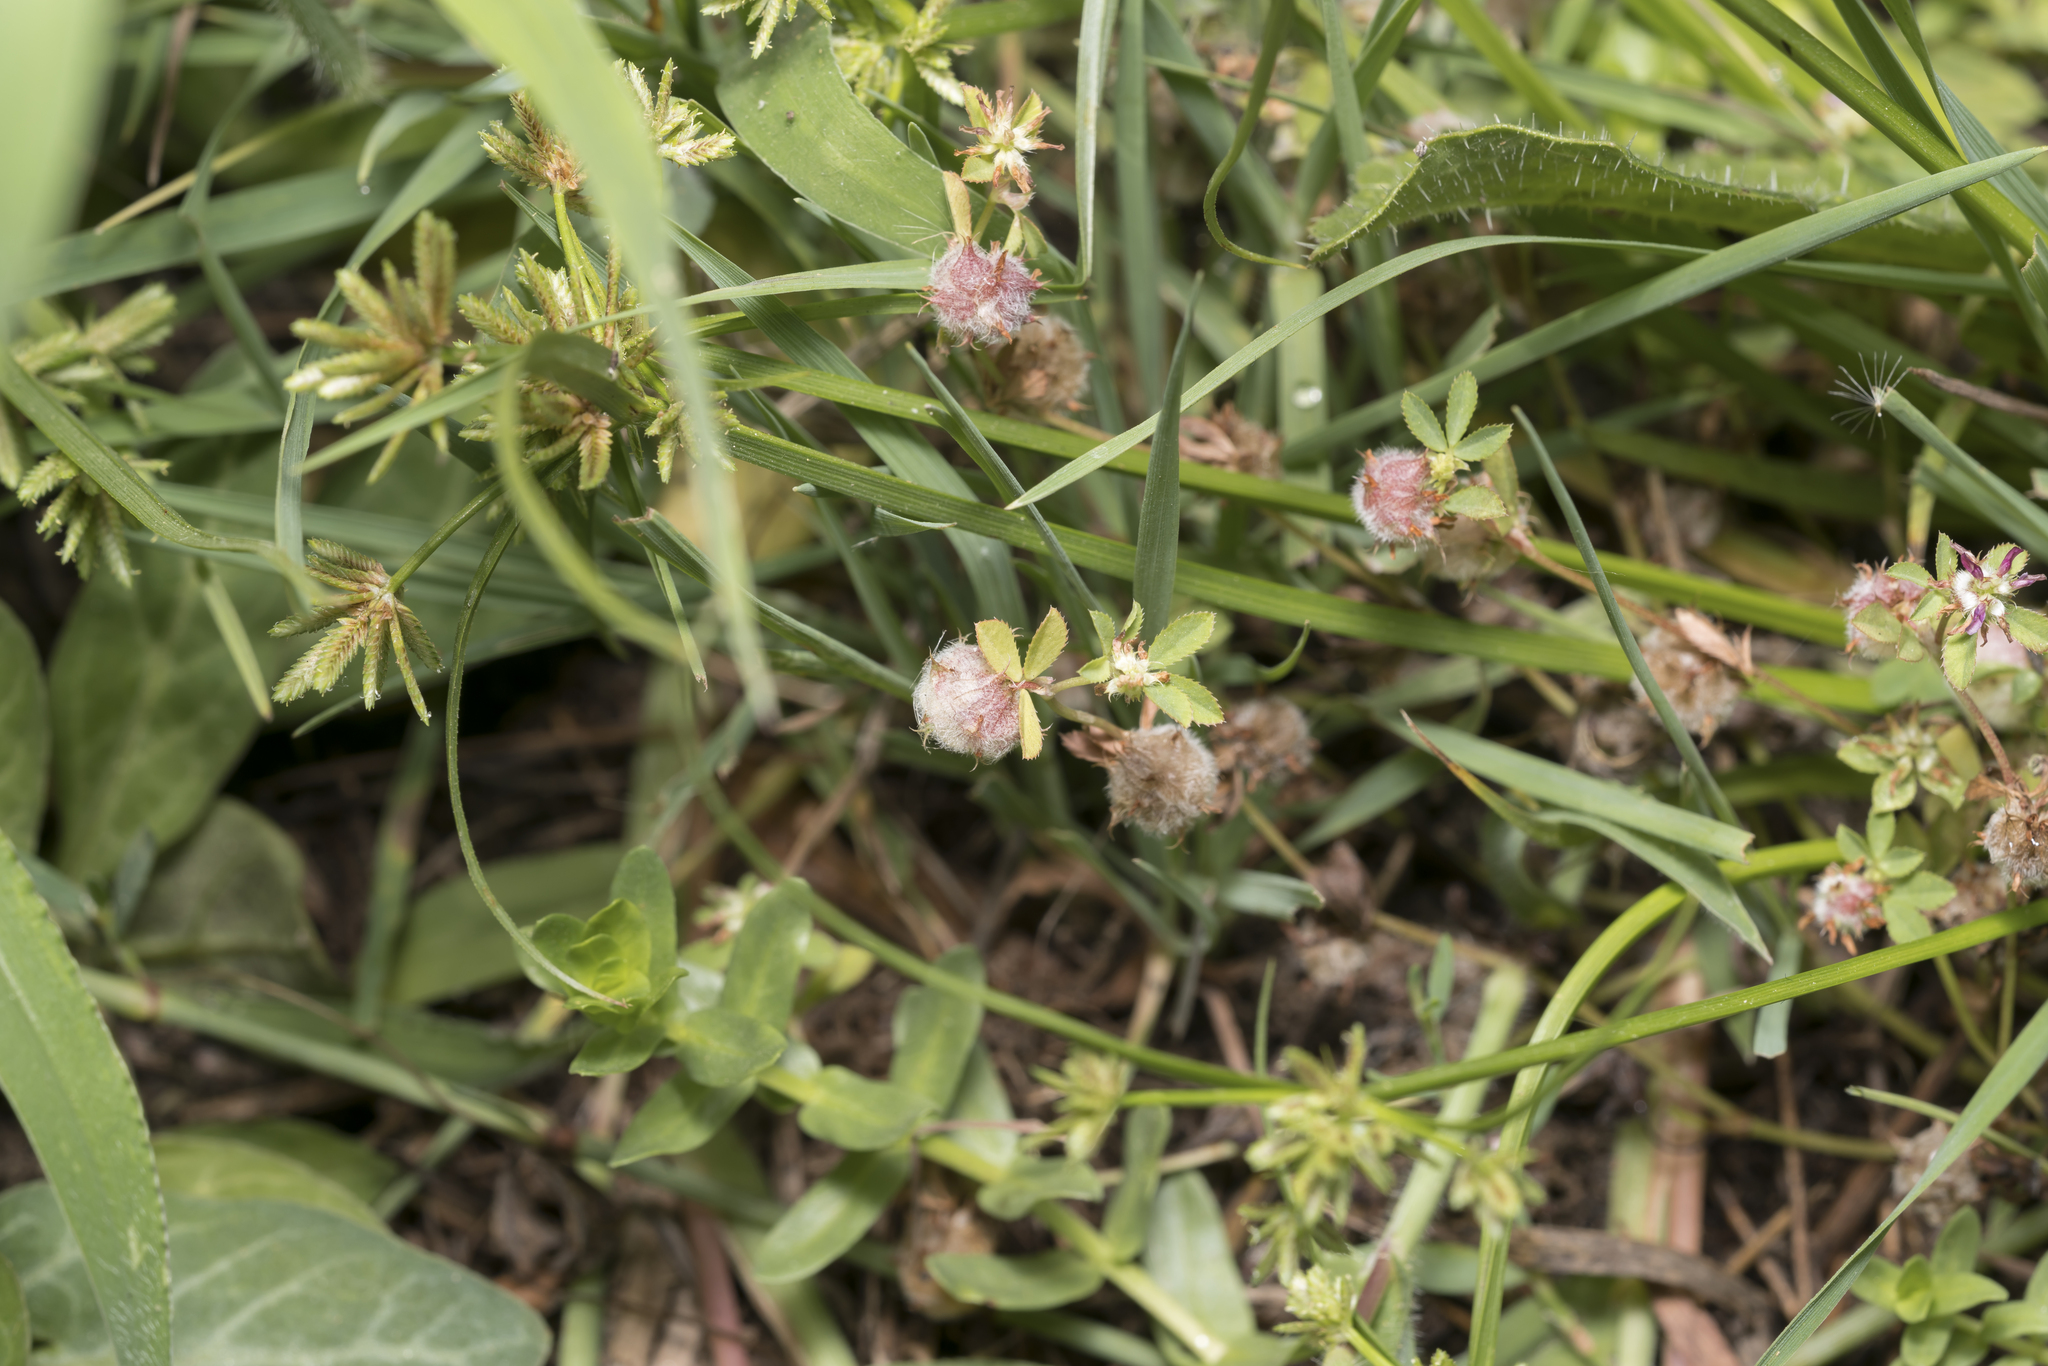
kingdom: Plantae
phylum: Tracheophyta
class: Magnoliopsida
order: Fabales
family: Fabaceae
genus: Trifolium
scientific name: Trifolium tomentosum
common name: Woolly clover
